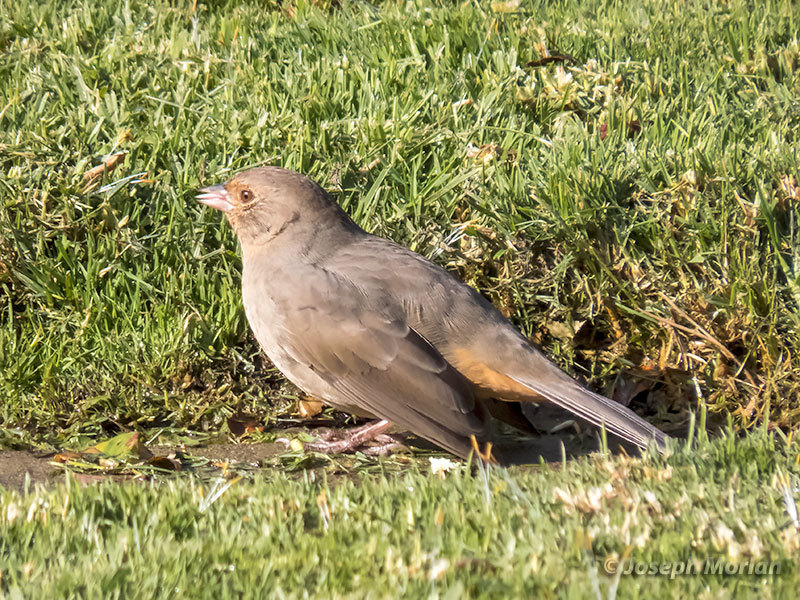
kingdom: Animalia
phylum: Chordata
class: Aves
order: Passeriformes
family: Passerellidae
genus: Melozone
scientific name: Melozone crissalis
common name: California towhee
